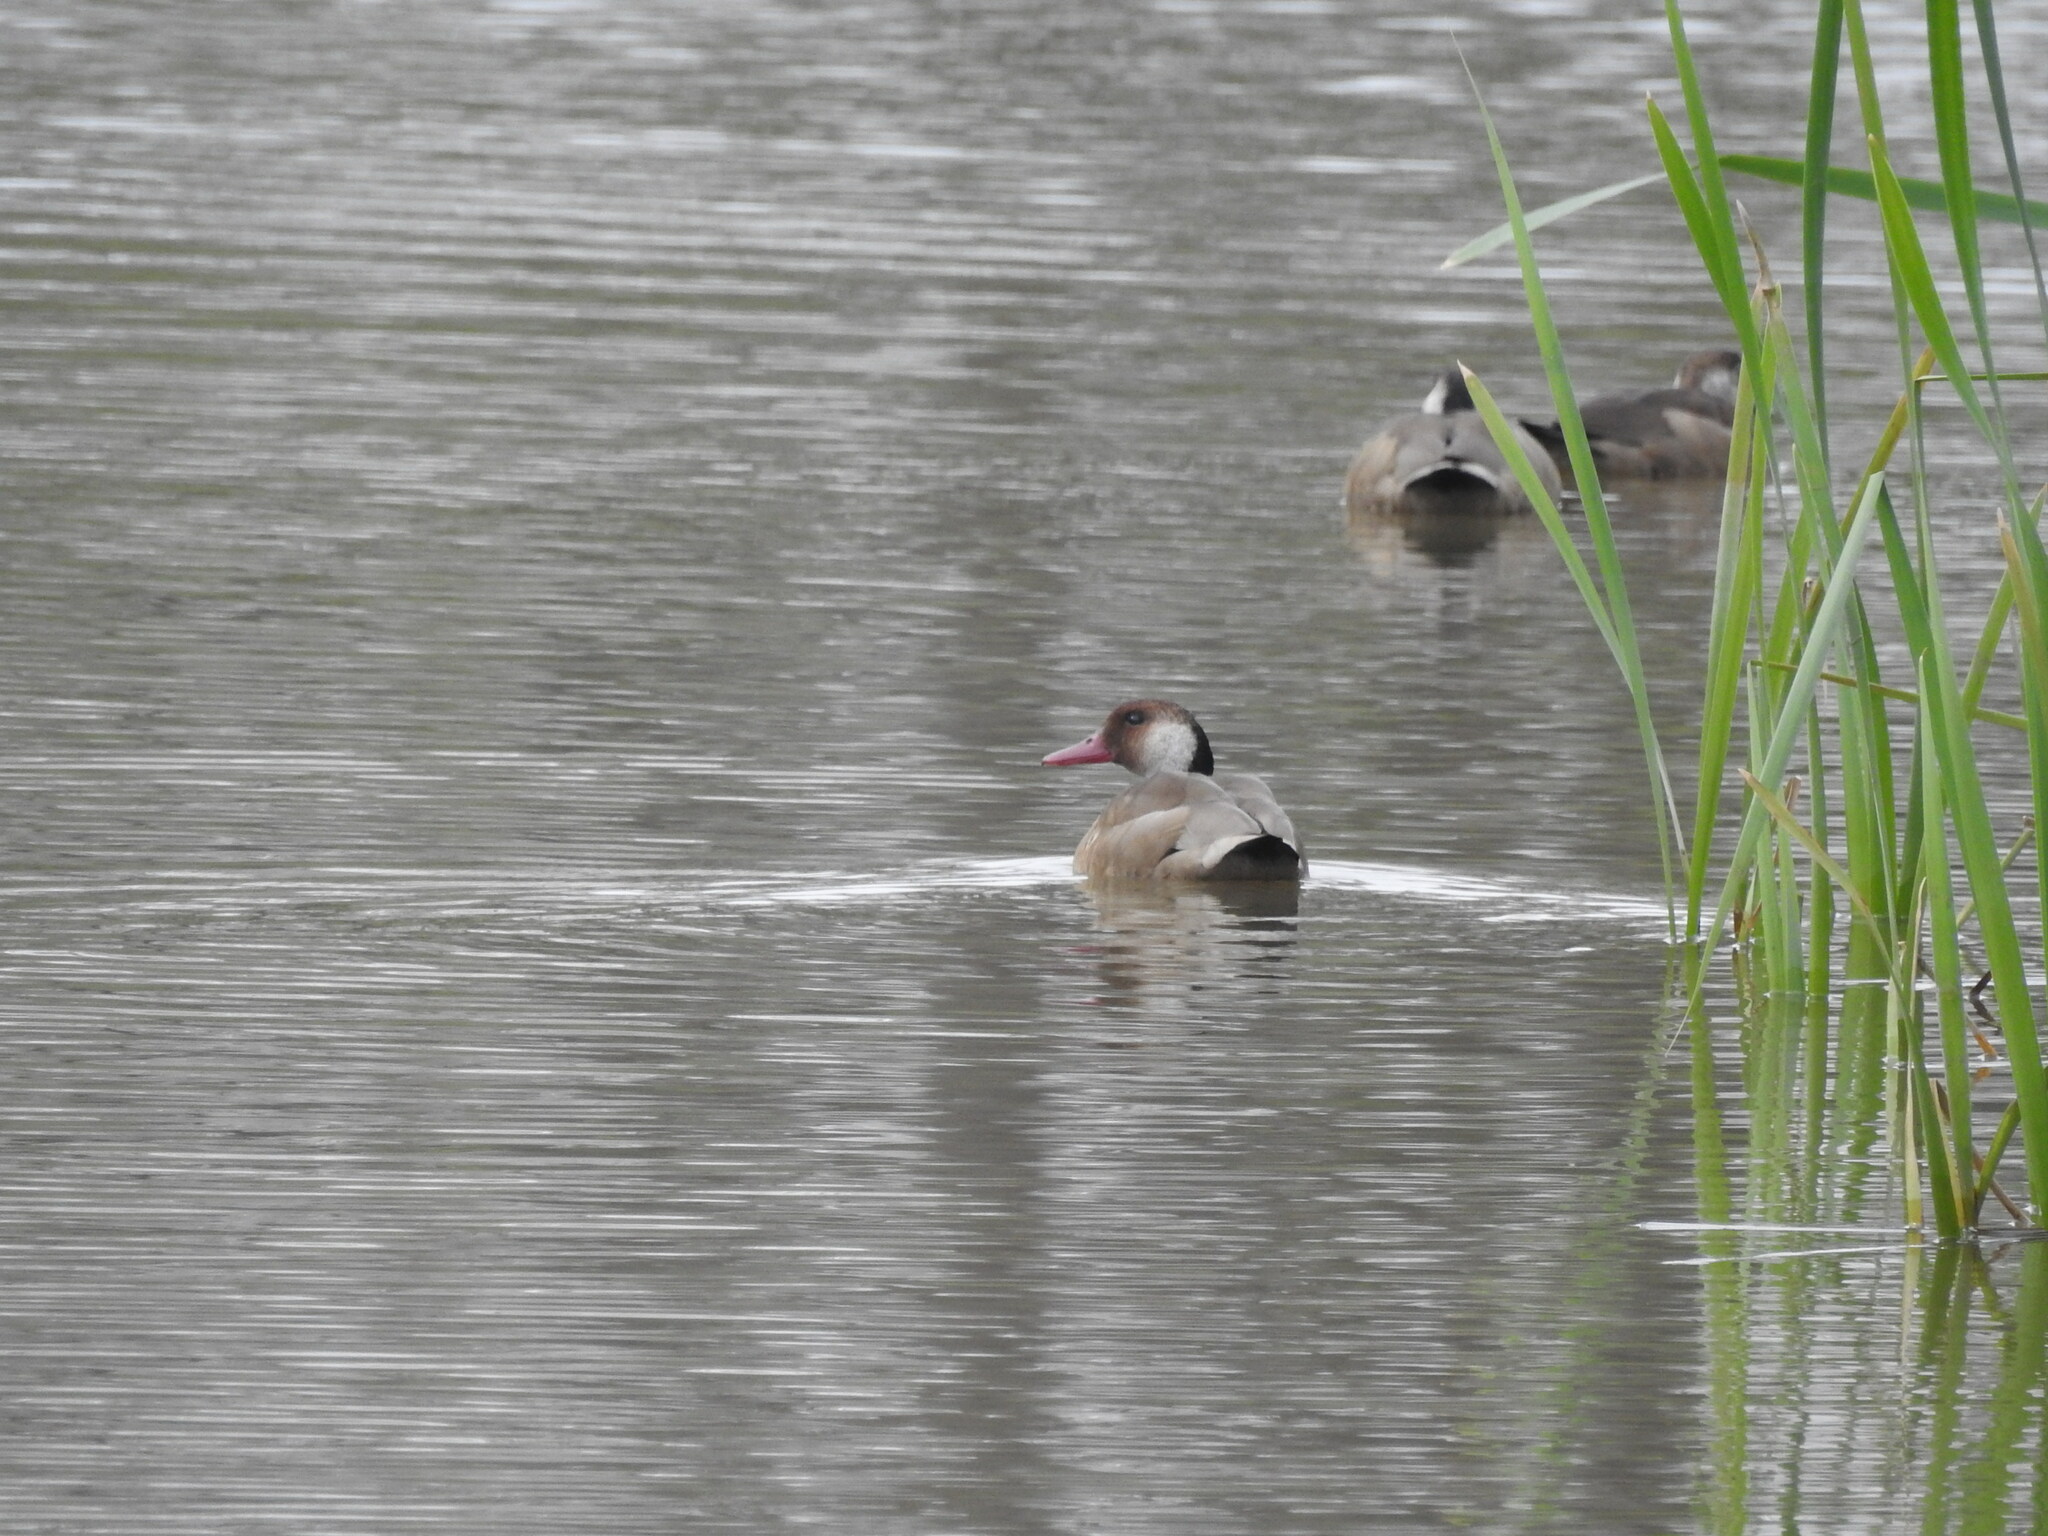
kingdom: Animalia
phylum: Chordata
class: Aves
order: Anseriformes
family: Anatidae
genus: Amazonetta
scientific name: Amazonetta brasiliensis
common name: Brazilian teal
